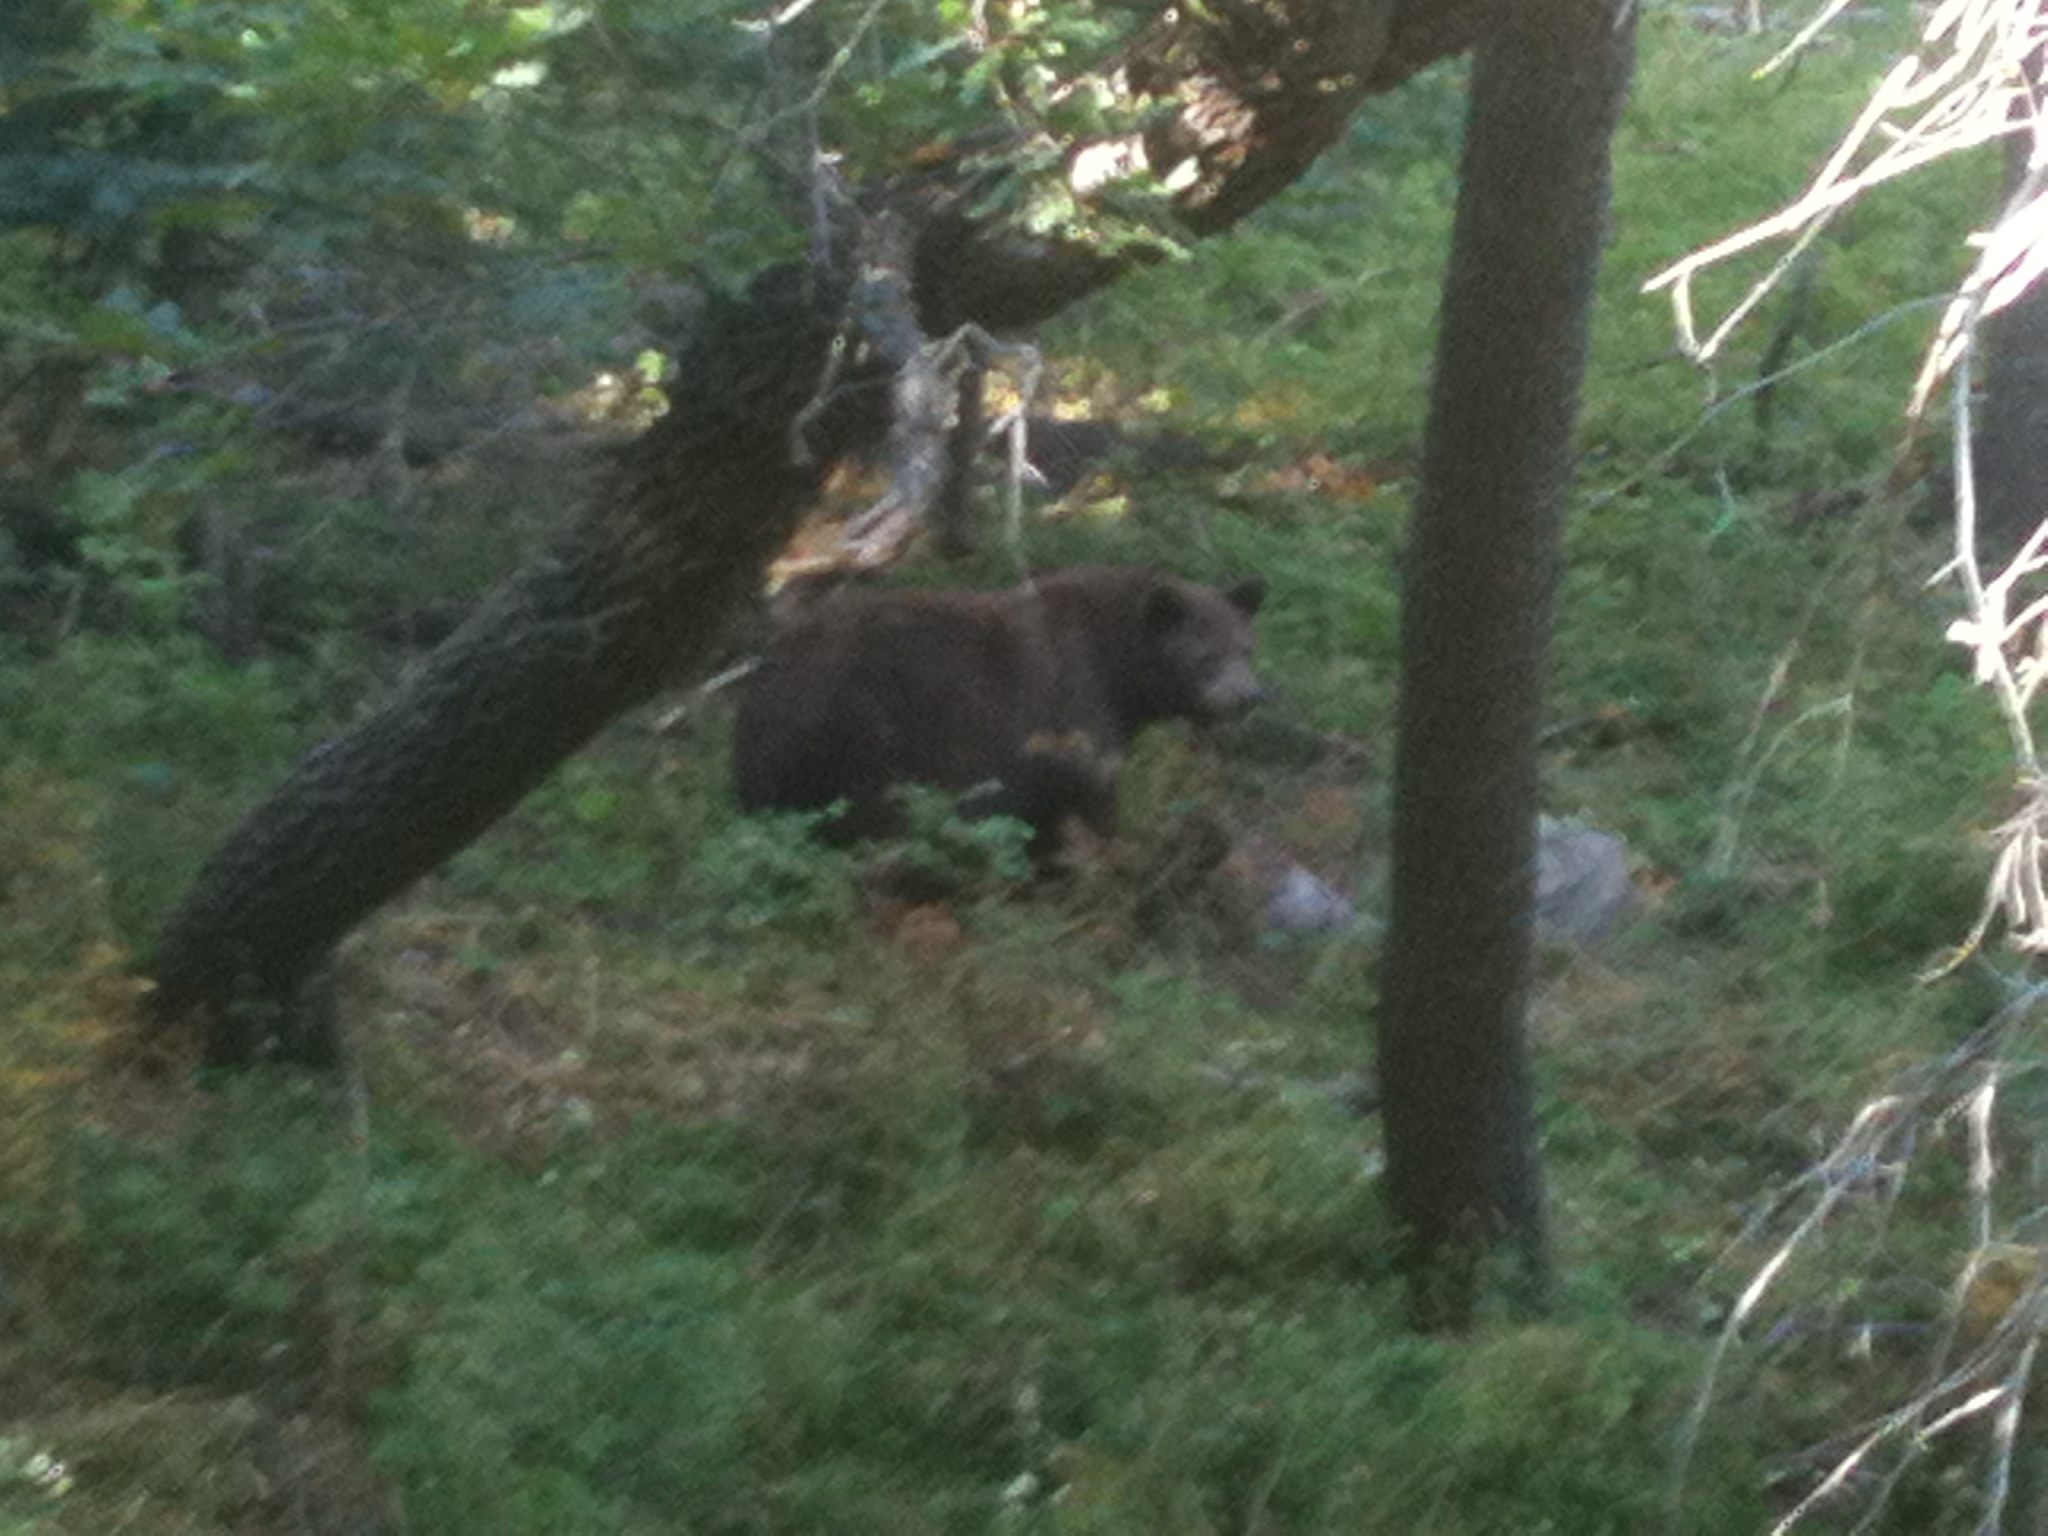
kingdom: Animalia
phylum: Chordata
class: Mammalia
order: Carnivora
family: Ursidae
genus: Ursus
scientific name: Ursus americanus
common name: American black bear
